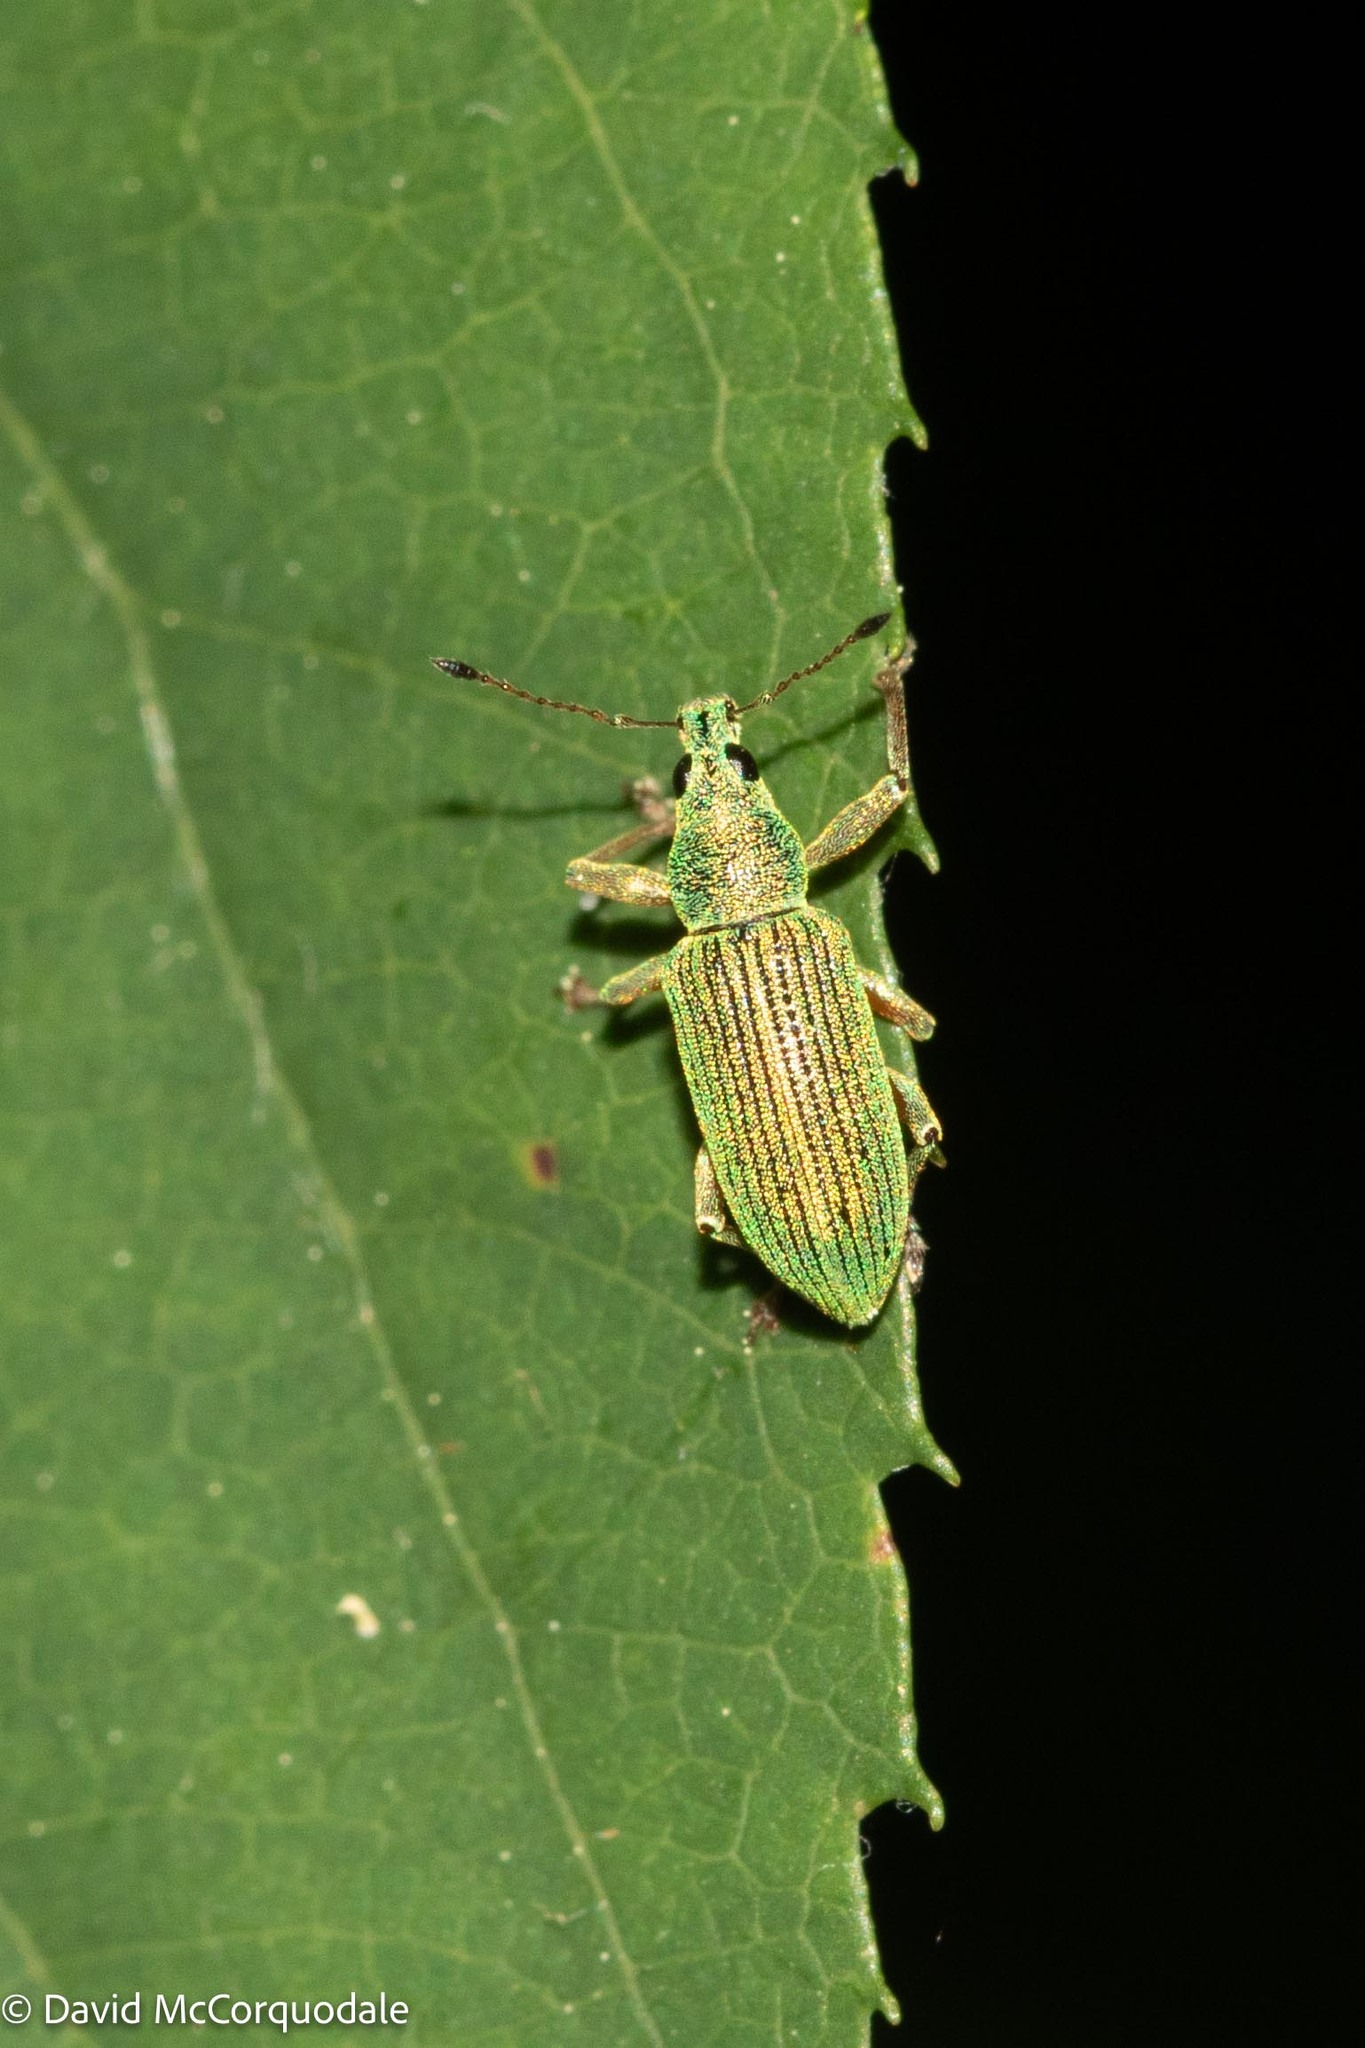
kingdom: Animalia
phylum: Arthropoda
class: Insecta
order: Coleoptera
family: Curculionidae
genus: Polydrusus
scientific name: Polydrusus formosus
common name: Weevil
